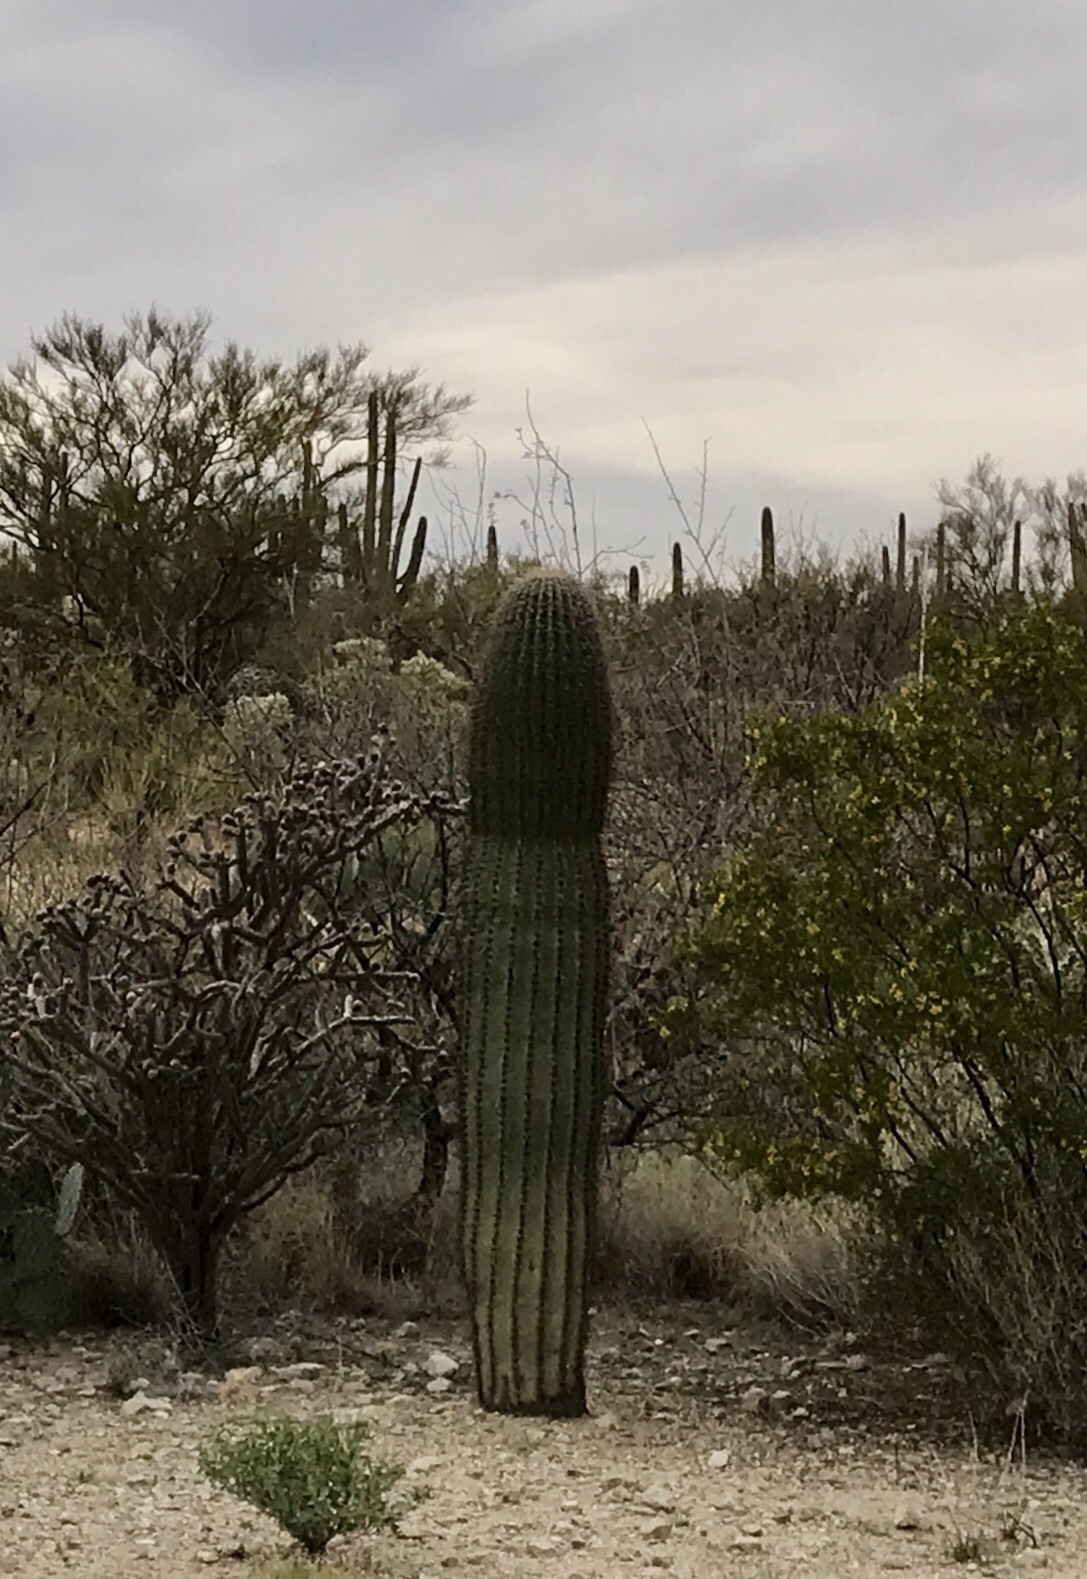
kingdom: Plantae
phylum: Tracheophyta
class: Magnoliopsida
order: Caryophyllales
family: Cactaceae
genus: Carnegiea
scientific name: Carnegiea gigantea
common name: Saguaro
